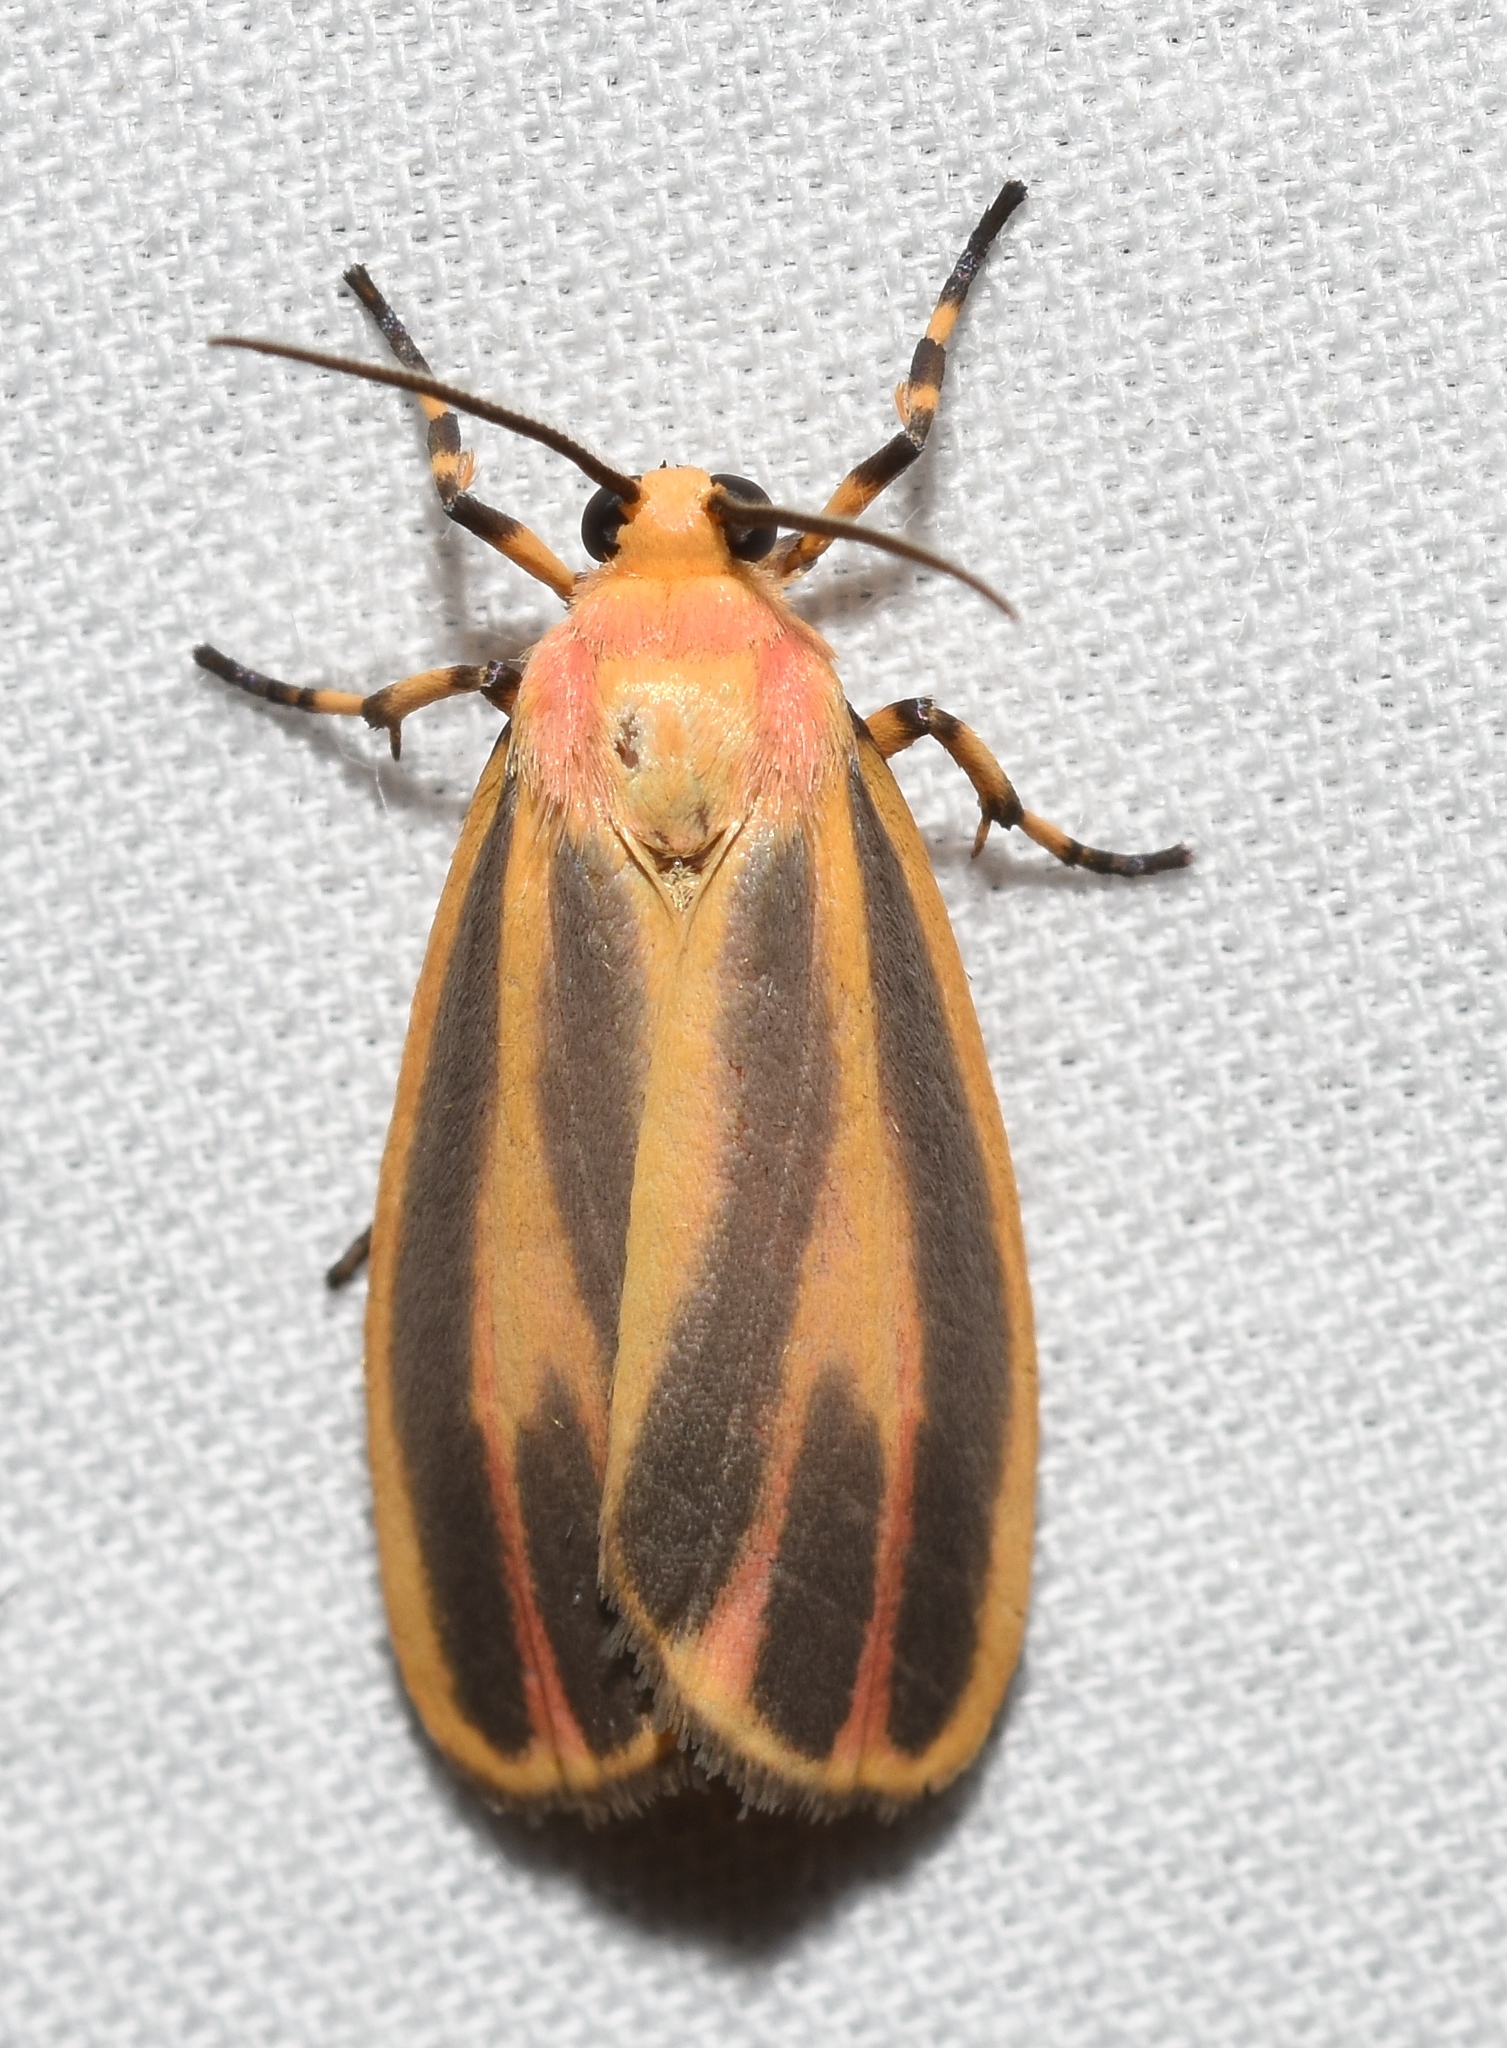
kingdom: Animalia
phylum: Arthropoda
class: Insecta
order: Lepidoptera
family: Erebidae
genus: Hypoprepia
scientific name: Hypoprepia fucosa
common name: Painted lichen moth
